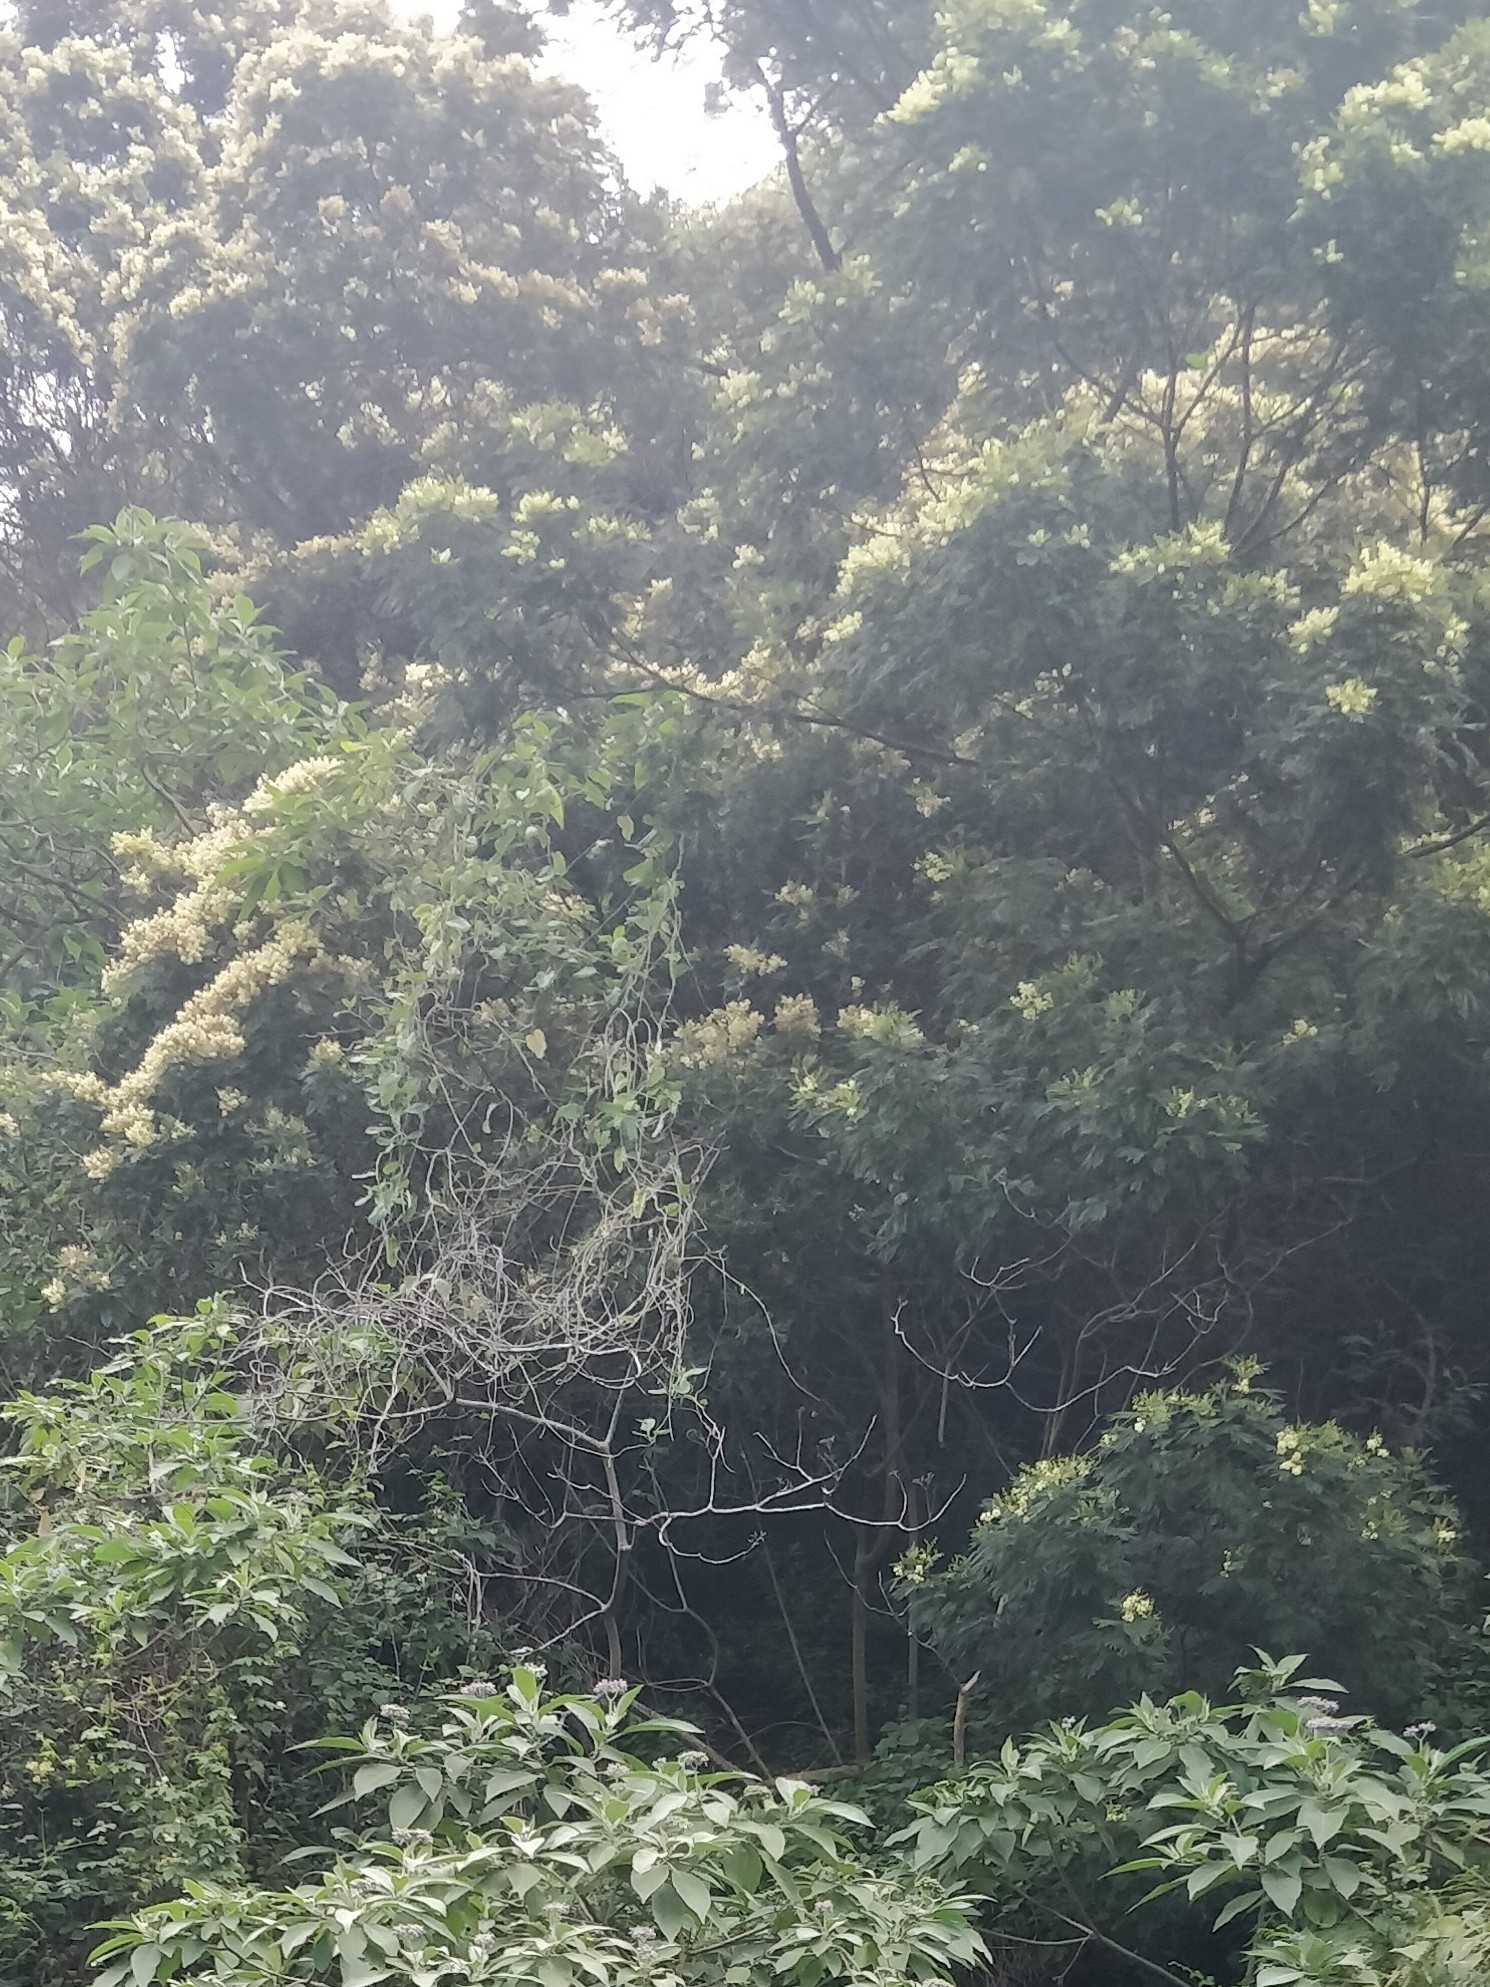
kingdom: Plantae
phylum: Tracheophyta
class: Magnoliopsida
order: Fabales
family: Fabaceae
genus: Acacia
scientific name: Acacia mearnsii
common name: Black wattle
